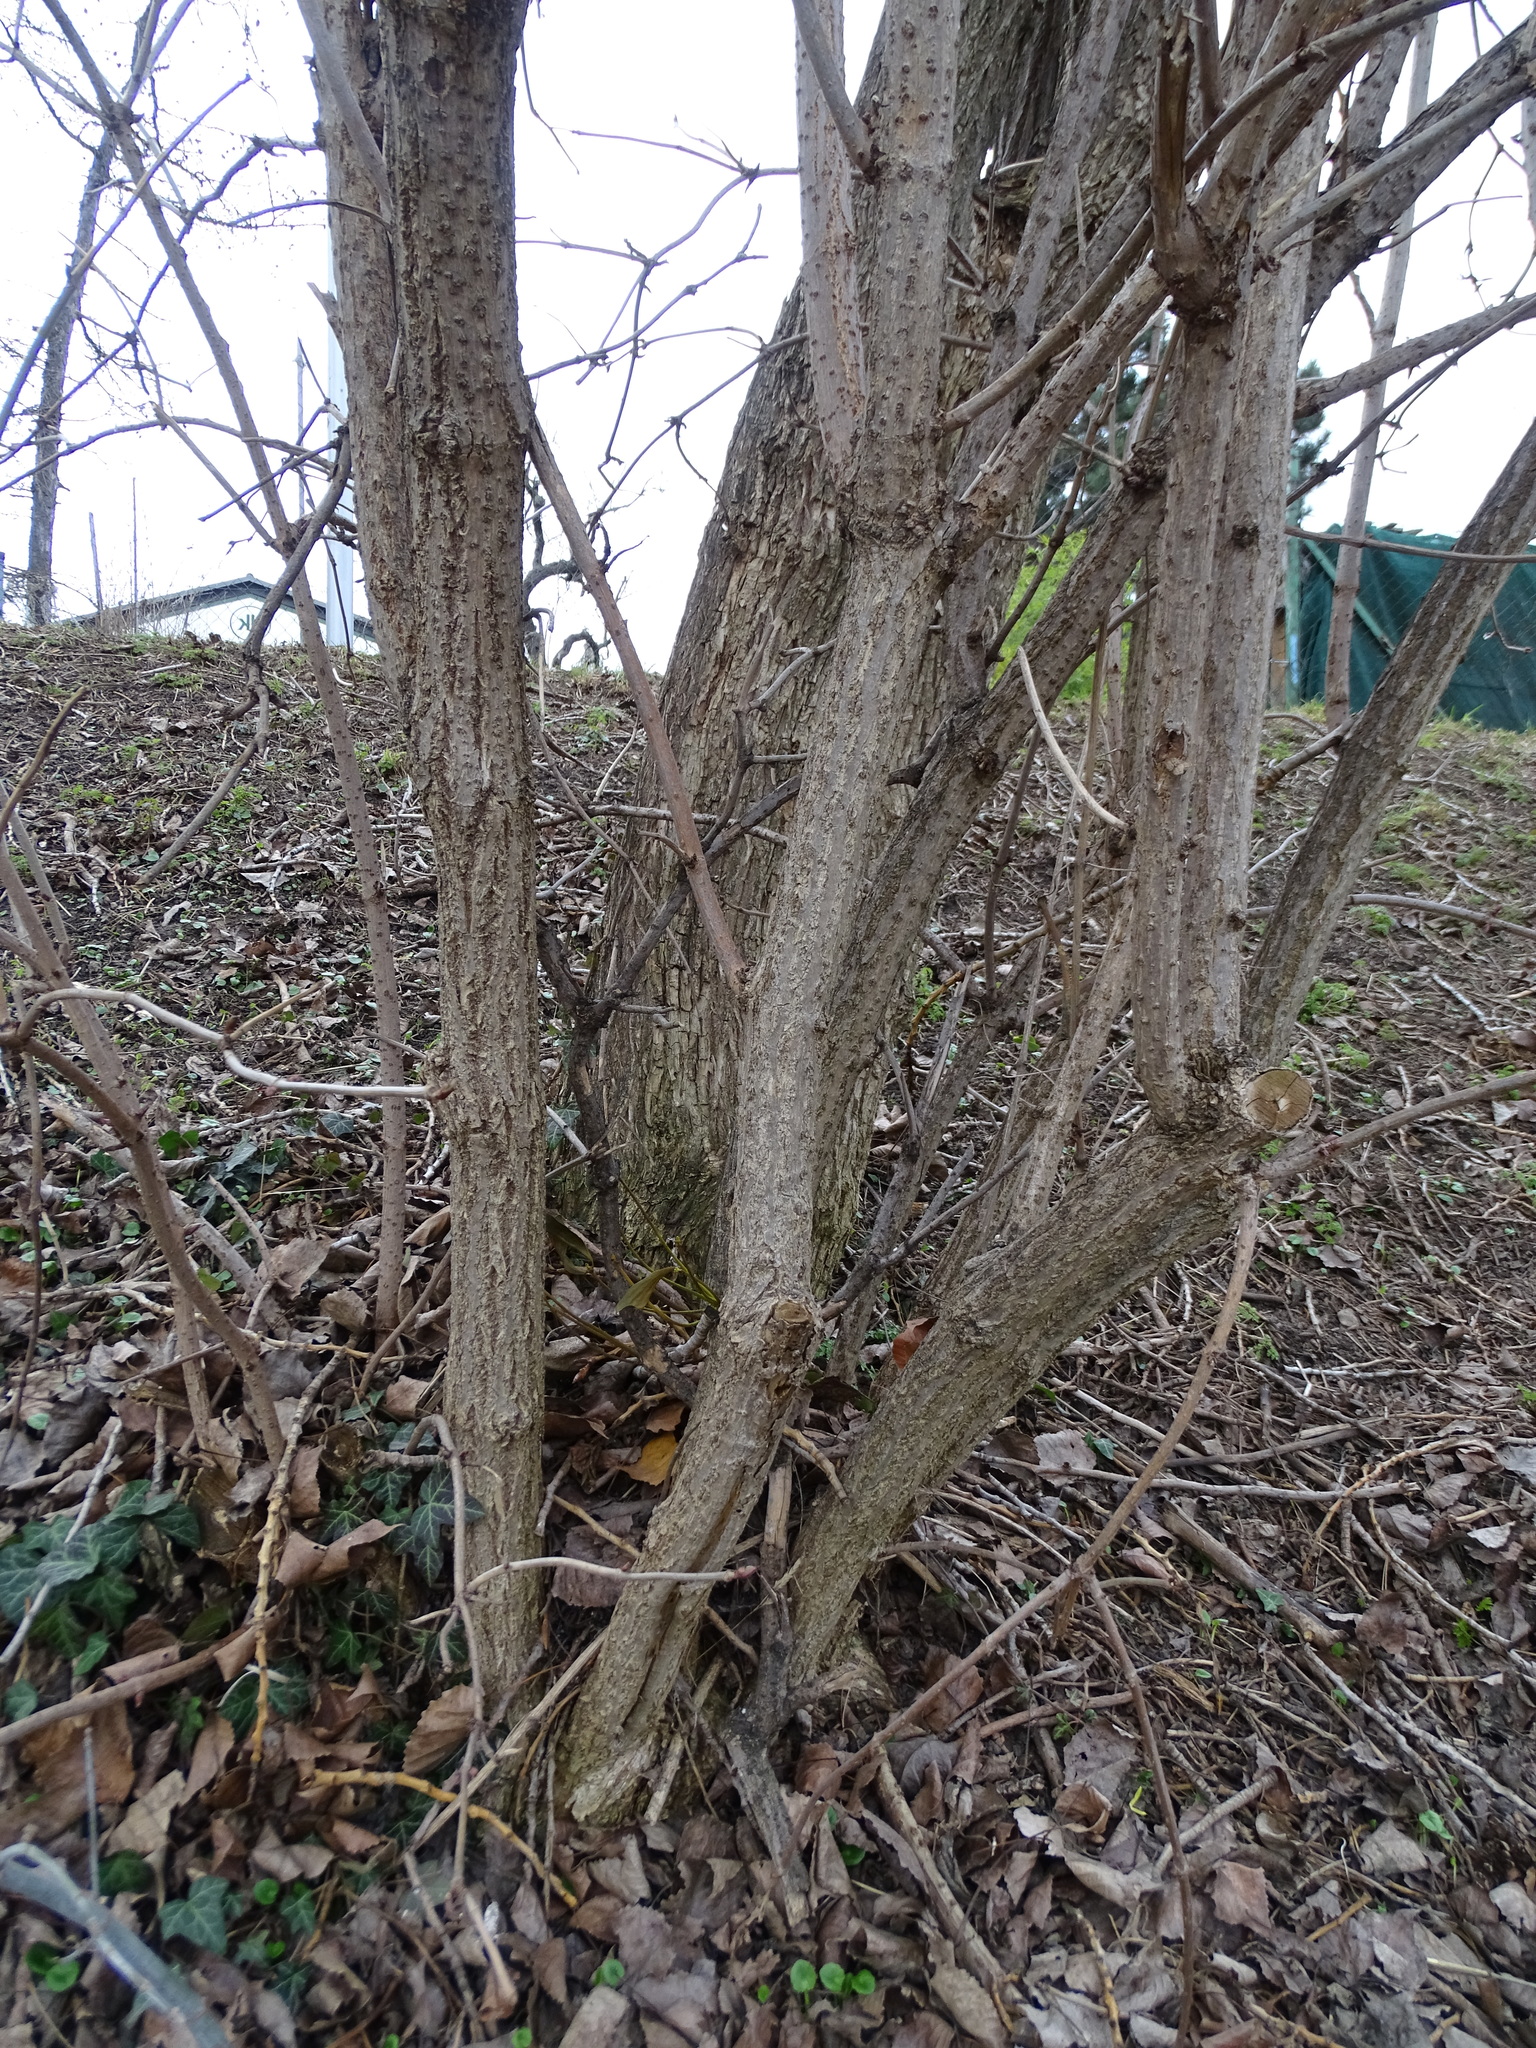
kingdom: Plantae
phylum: Tracheophyta
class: Magnoliopsida
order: Dipsacales
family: Viburnaceae
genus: Sambucus
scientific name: Sambucus nigra
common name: Elder
